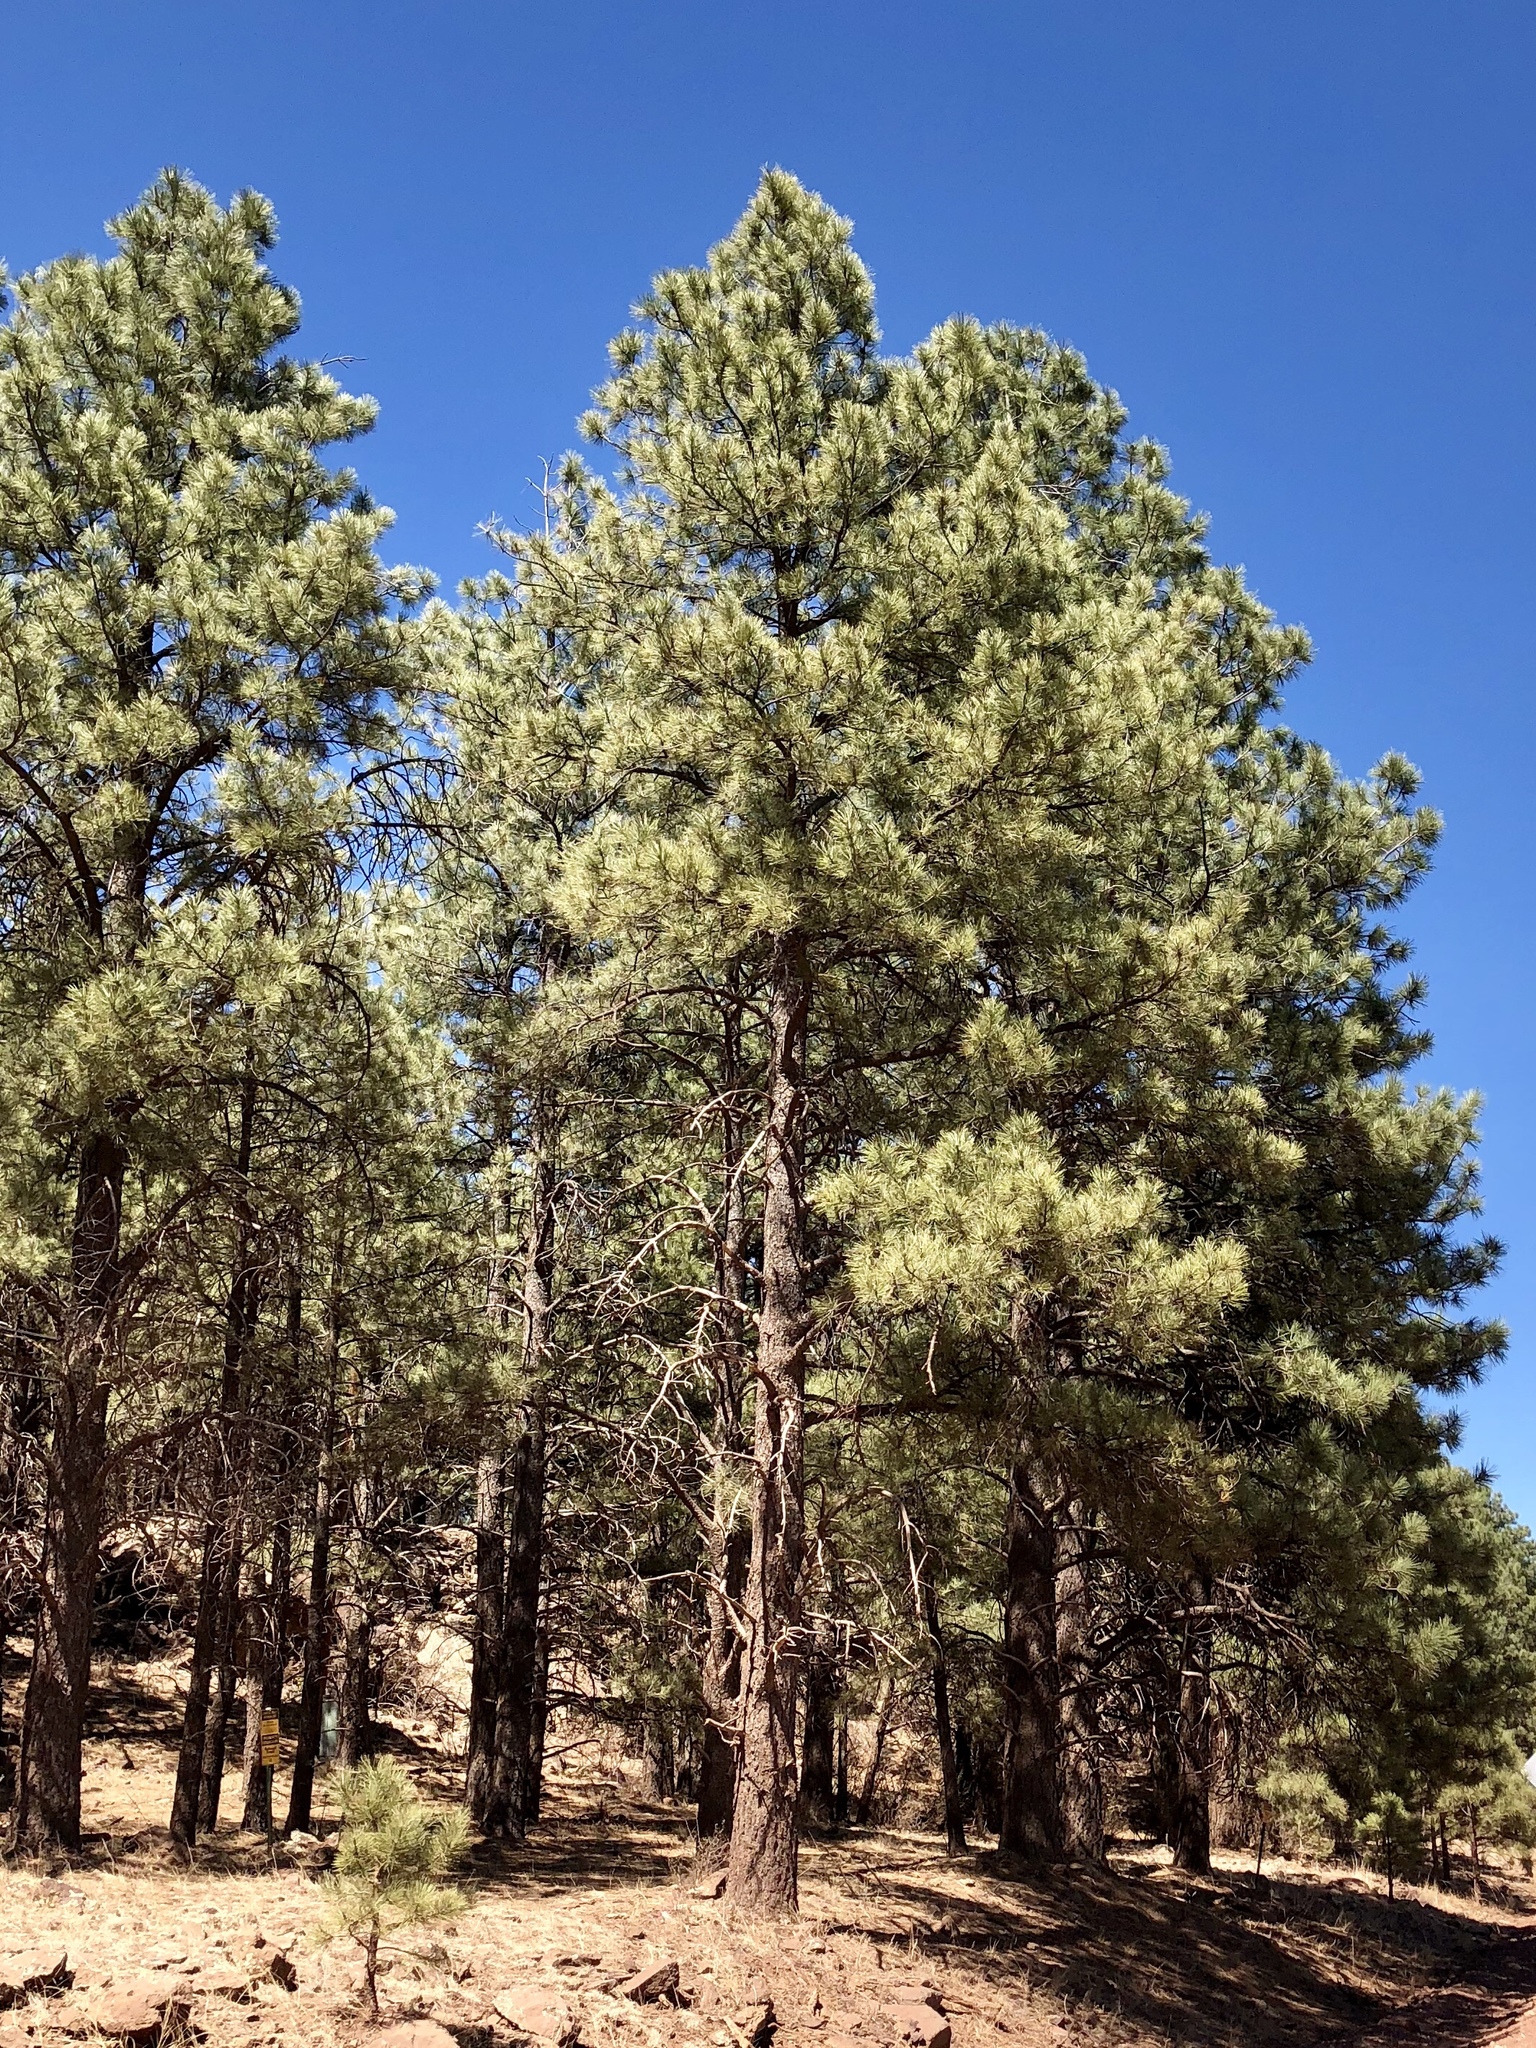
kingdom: Plantae
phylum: Tracheophyta
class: Pinopsida
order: Pinales
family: Pinaceae
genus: Pinus
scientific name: Pinus ponderosa
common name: Western yellow-pine
